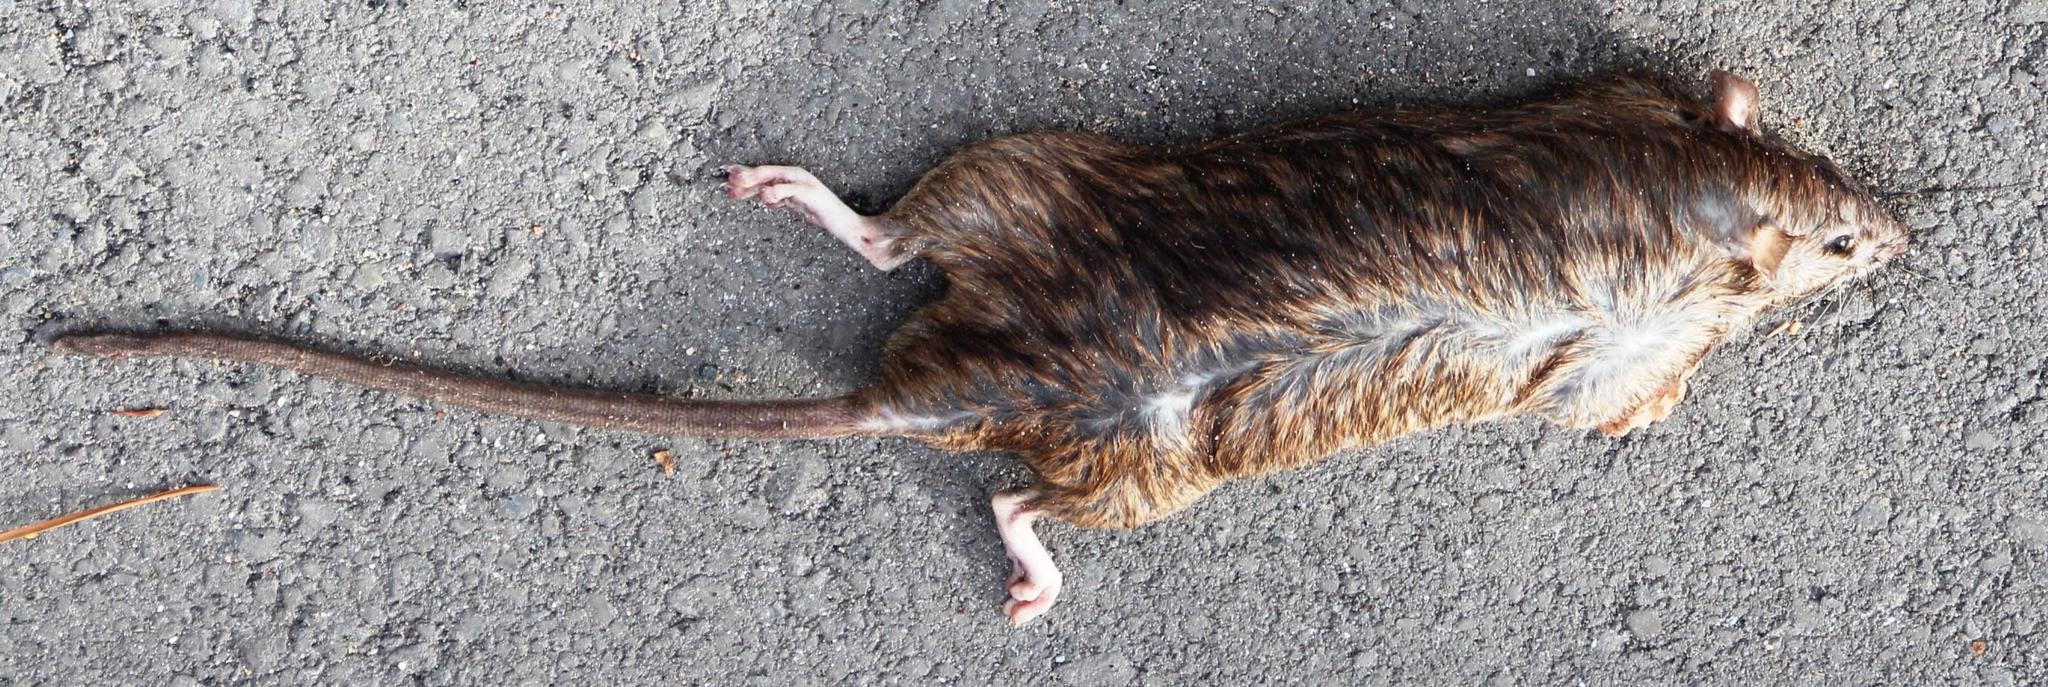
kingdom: Animalia
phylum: Chordata
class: Mammalia
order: Rodentia
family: Muridae
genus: Rattus
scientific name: Rattus rattus
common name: Black rat
